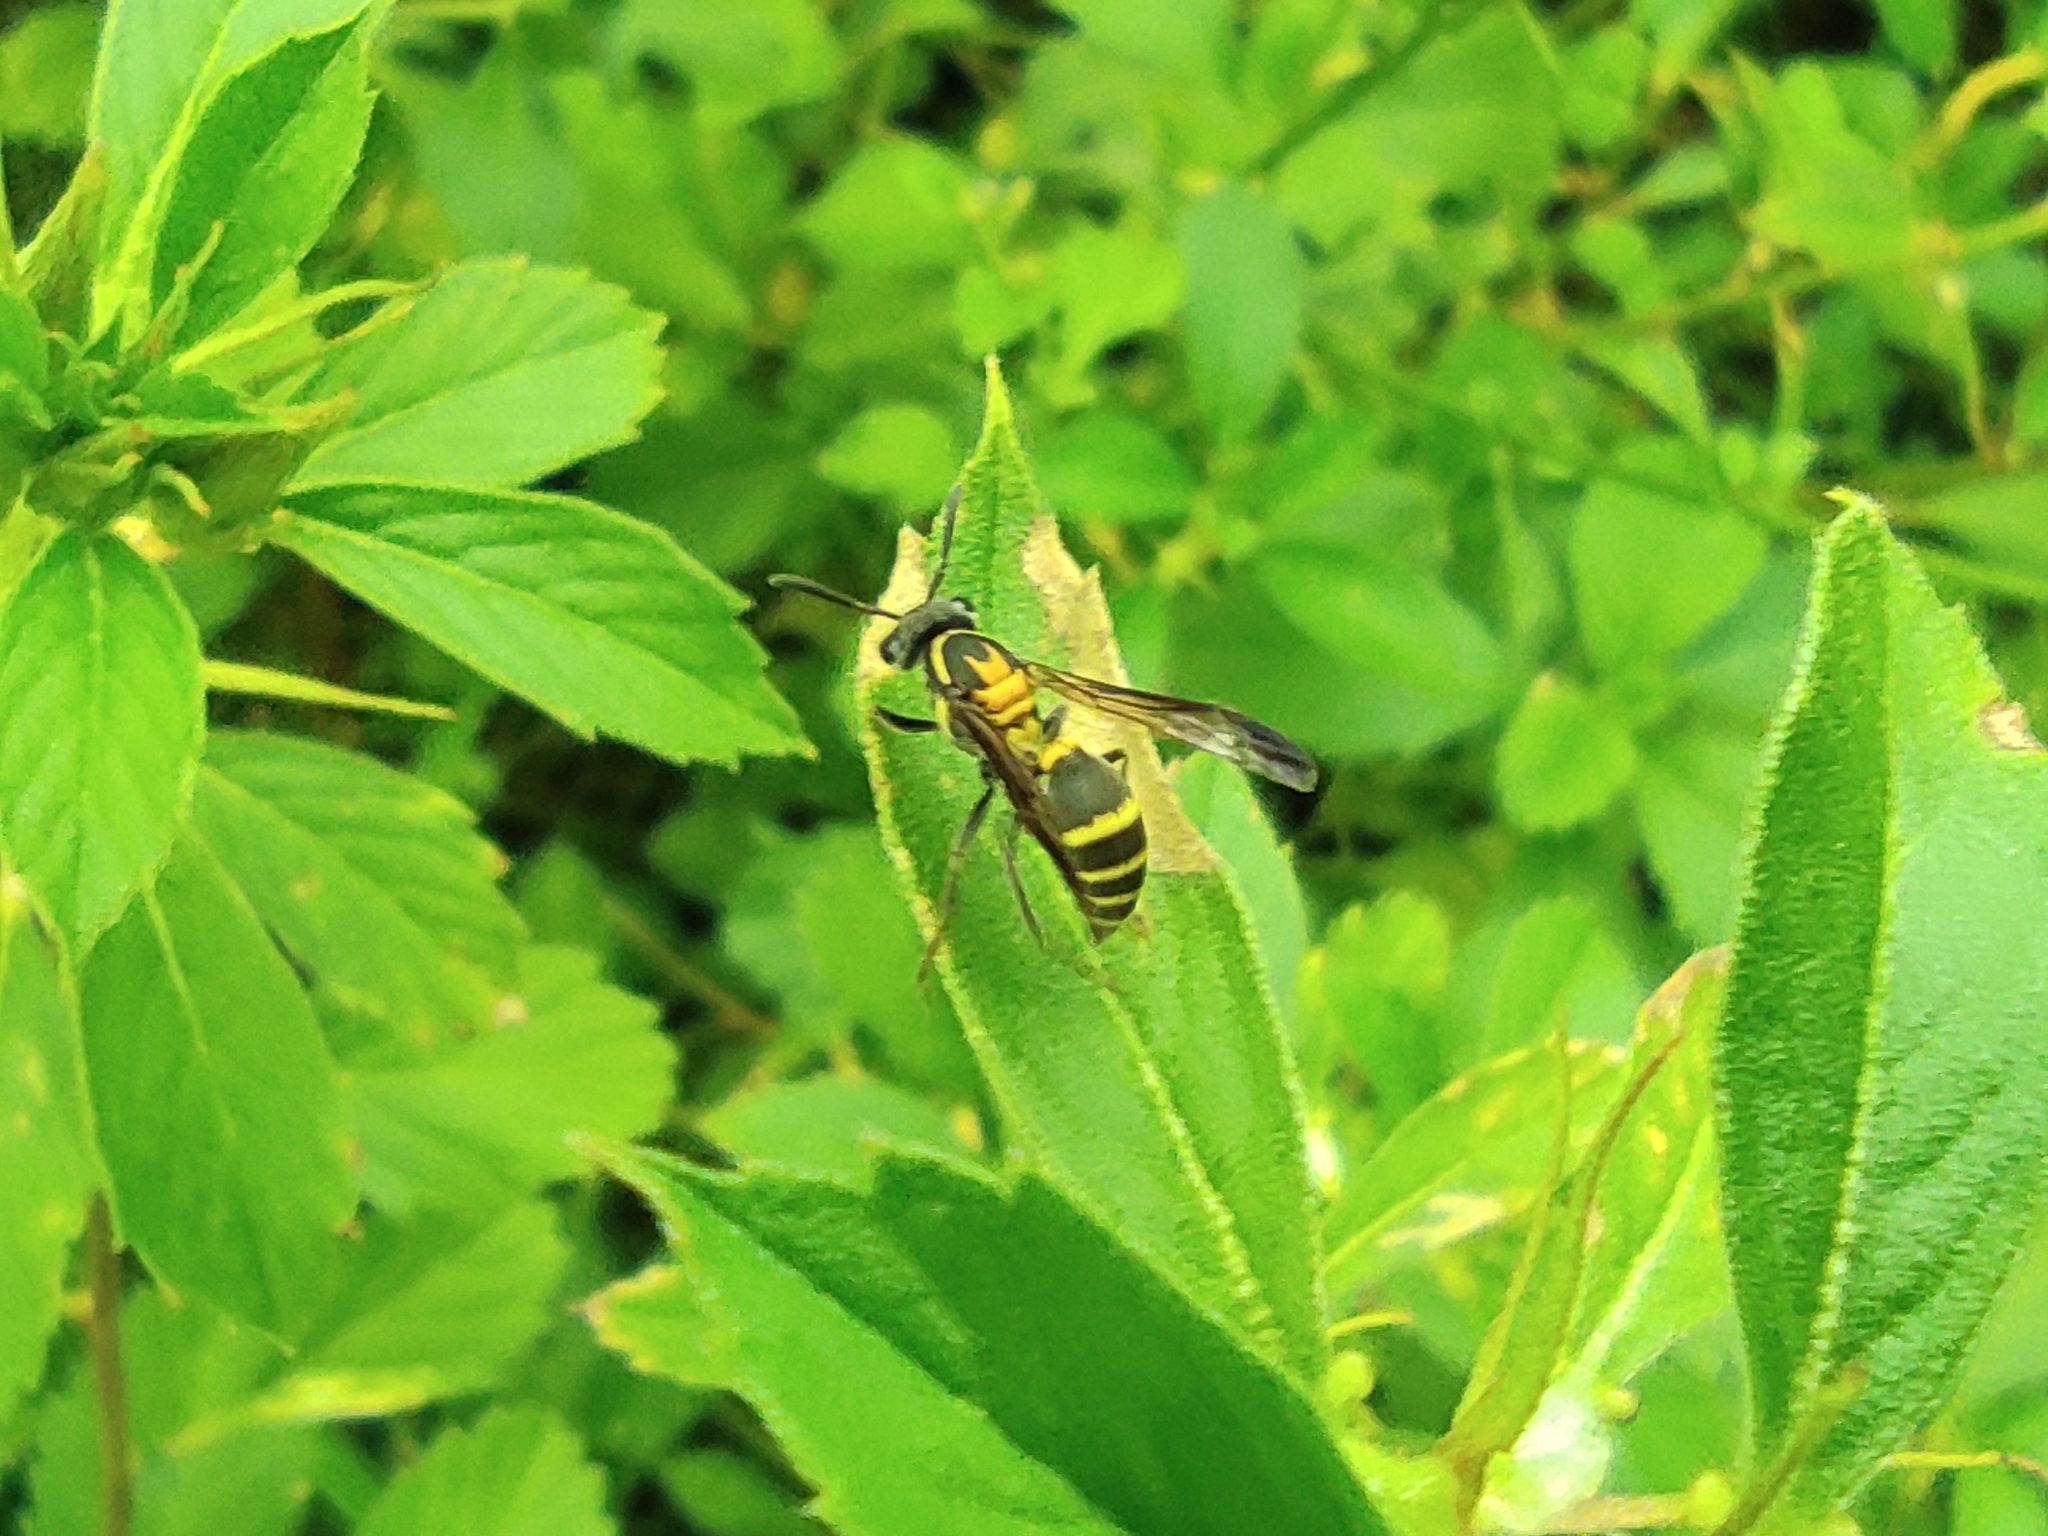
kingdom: Animalia
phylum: Arthropoda
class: Insecta
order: Hymenoptera
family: Eumenidae
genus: Polybia
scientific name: Polybia occidentalis
